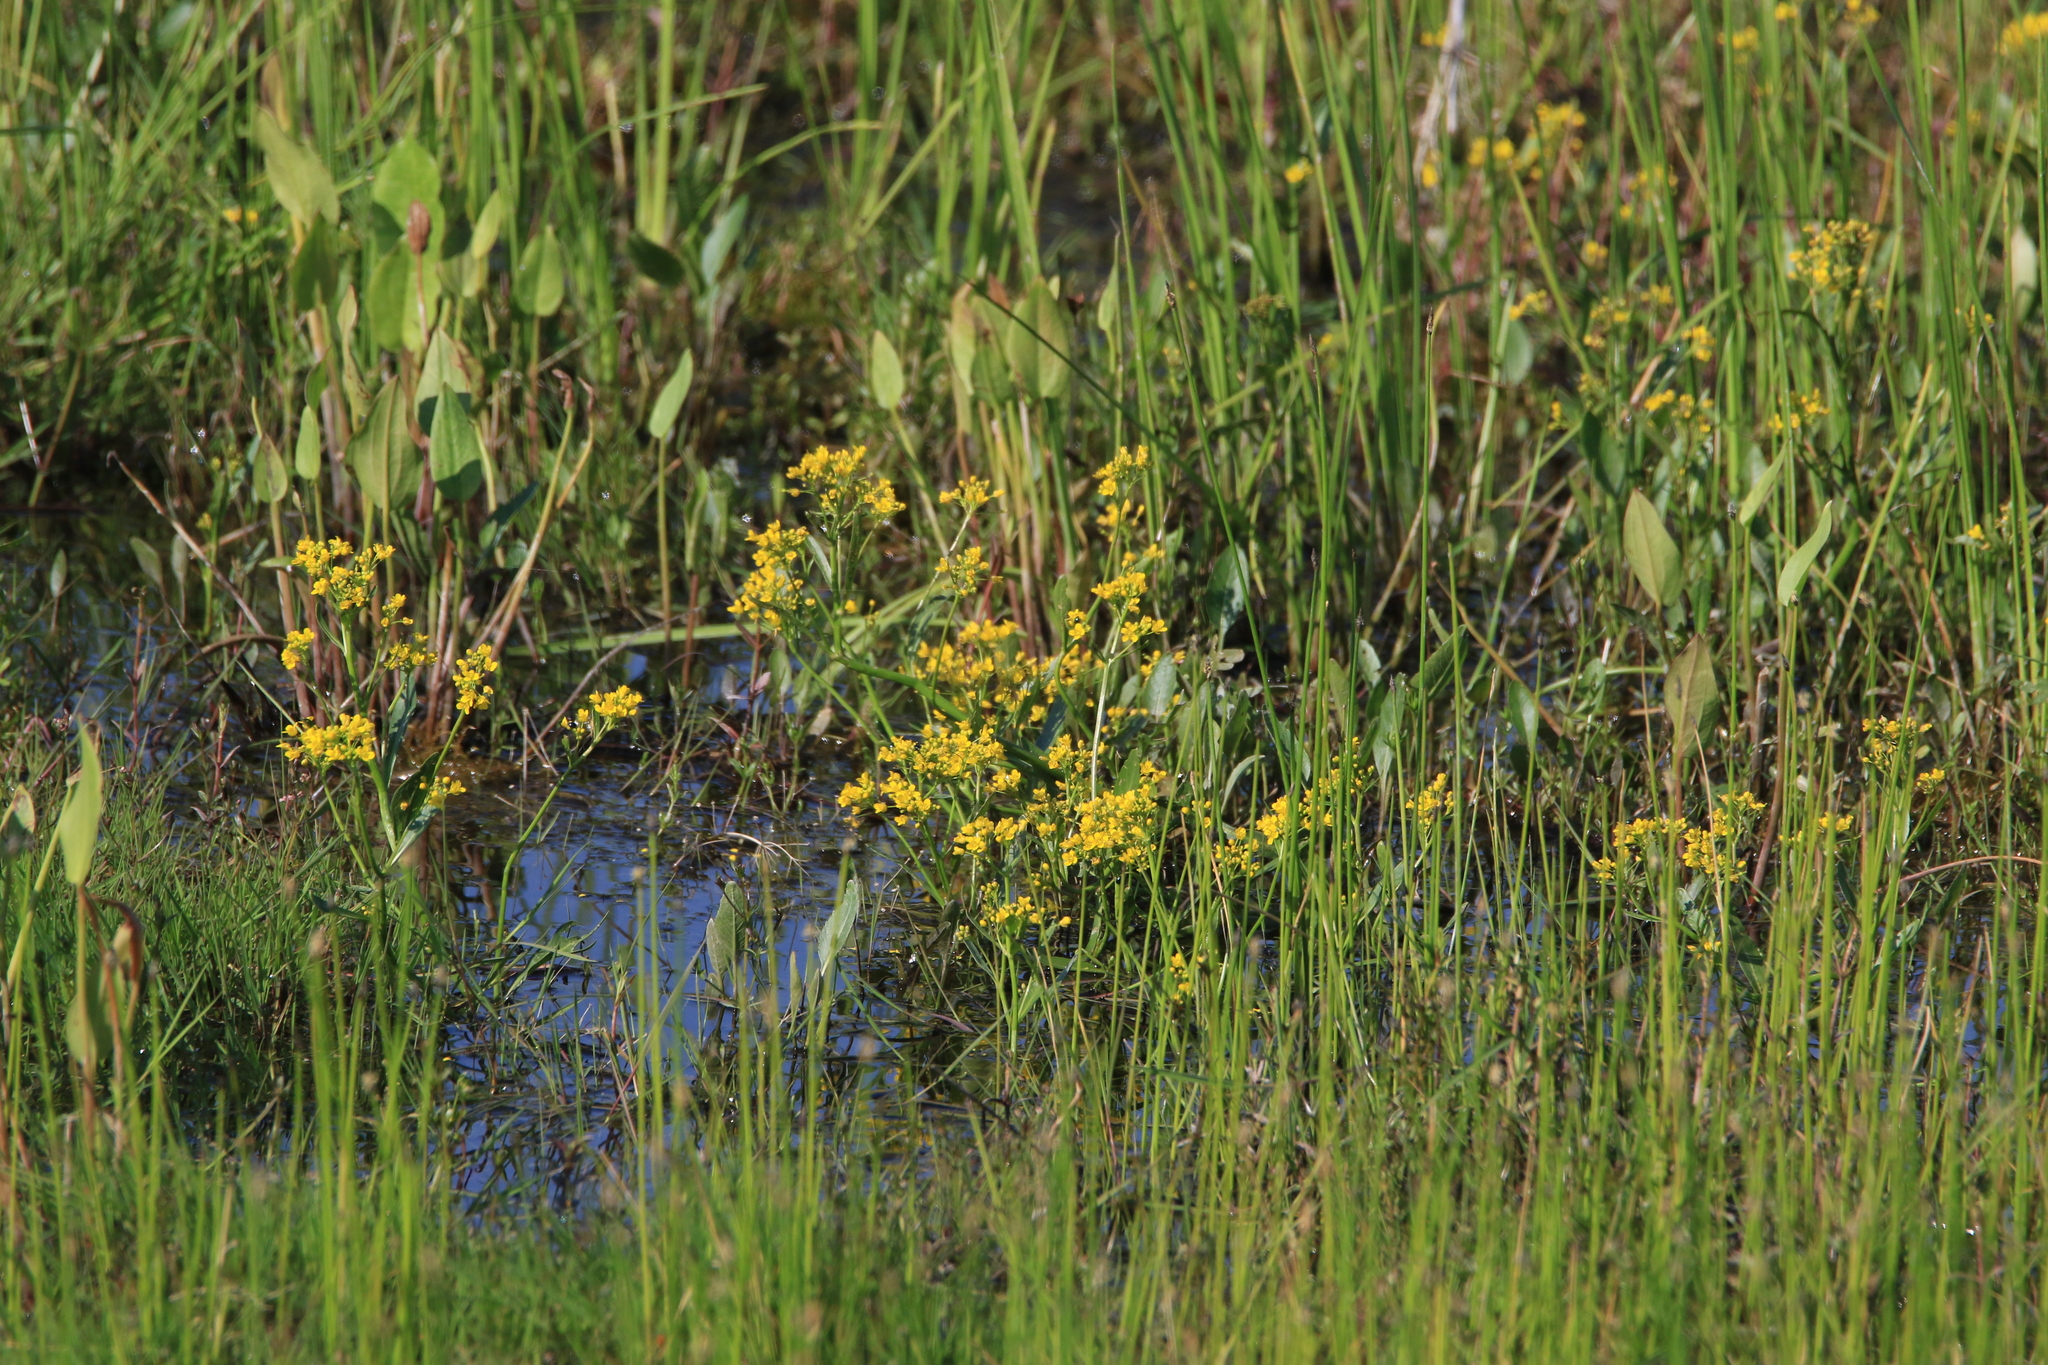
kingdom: Plantae
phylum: Tracheophyta
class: Magnoliopsida
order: Brassicales
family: Brassicaceae
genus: Rorippa
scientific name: Rorippa amphibia
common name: Great yellow-cress
